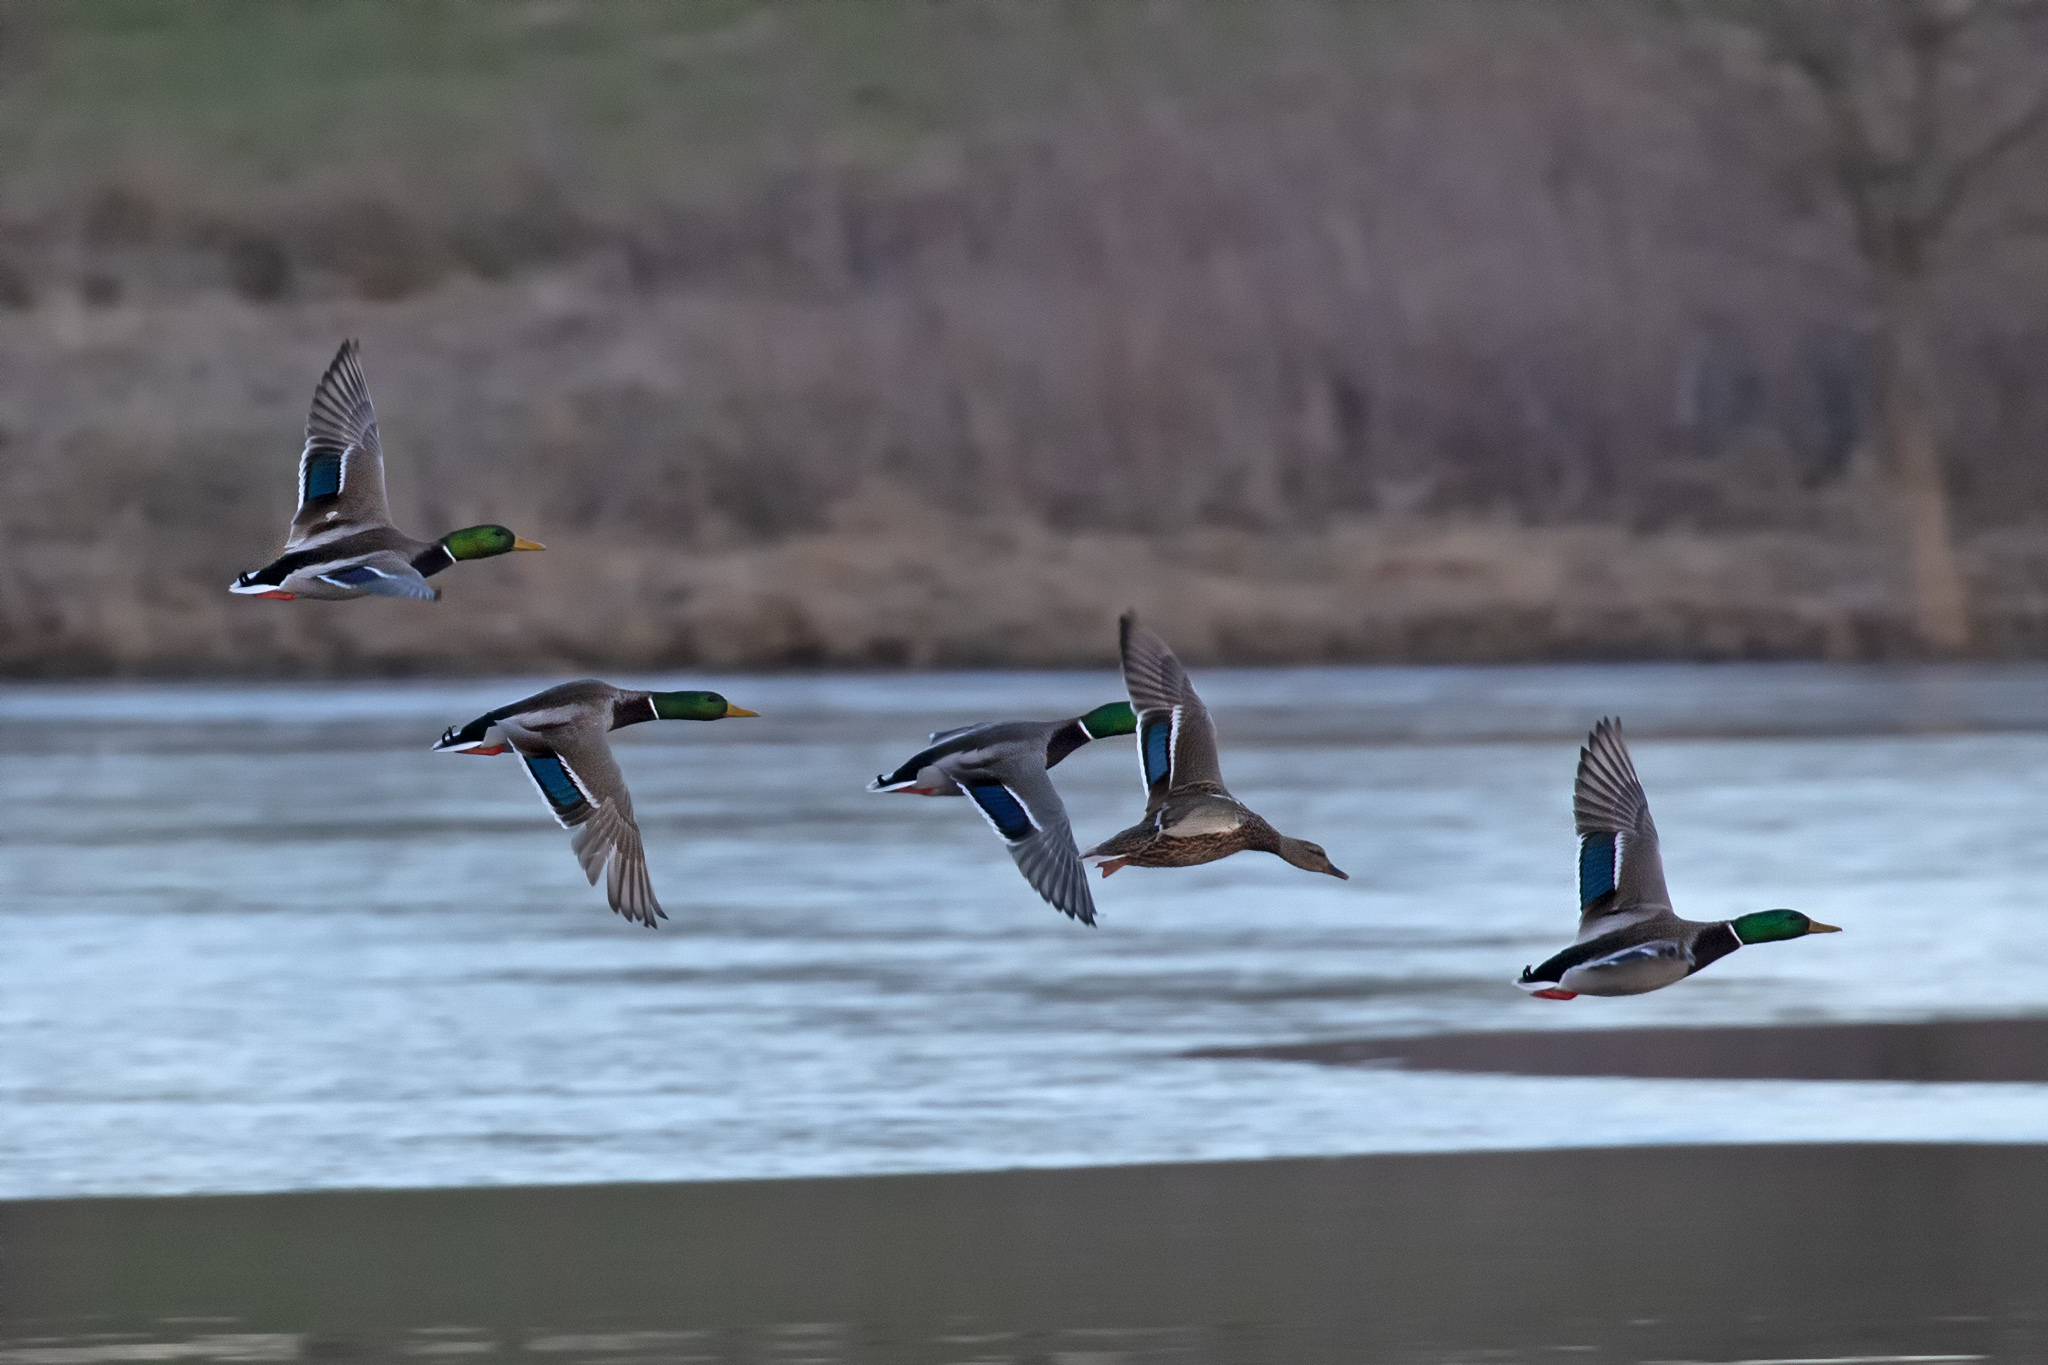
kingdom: Animalia
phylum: Chordata
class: Aves
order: Anseriformes
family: Anatidae
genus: Anas
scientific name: Anas platyrhynchos
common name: Mallard
